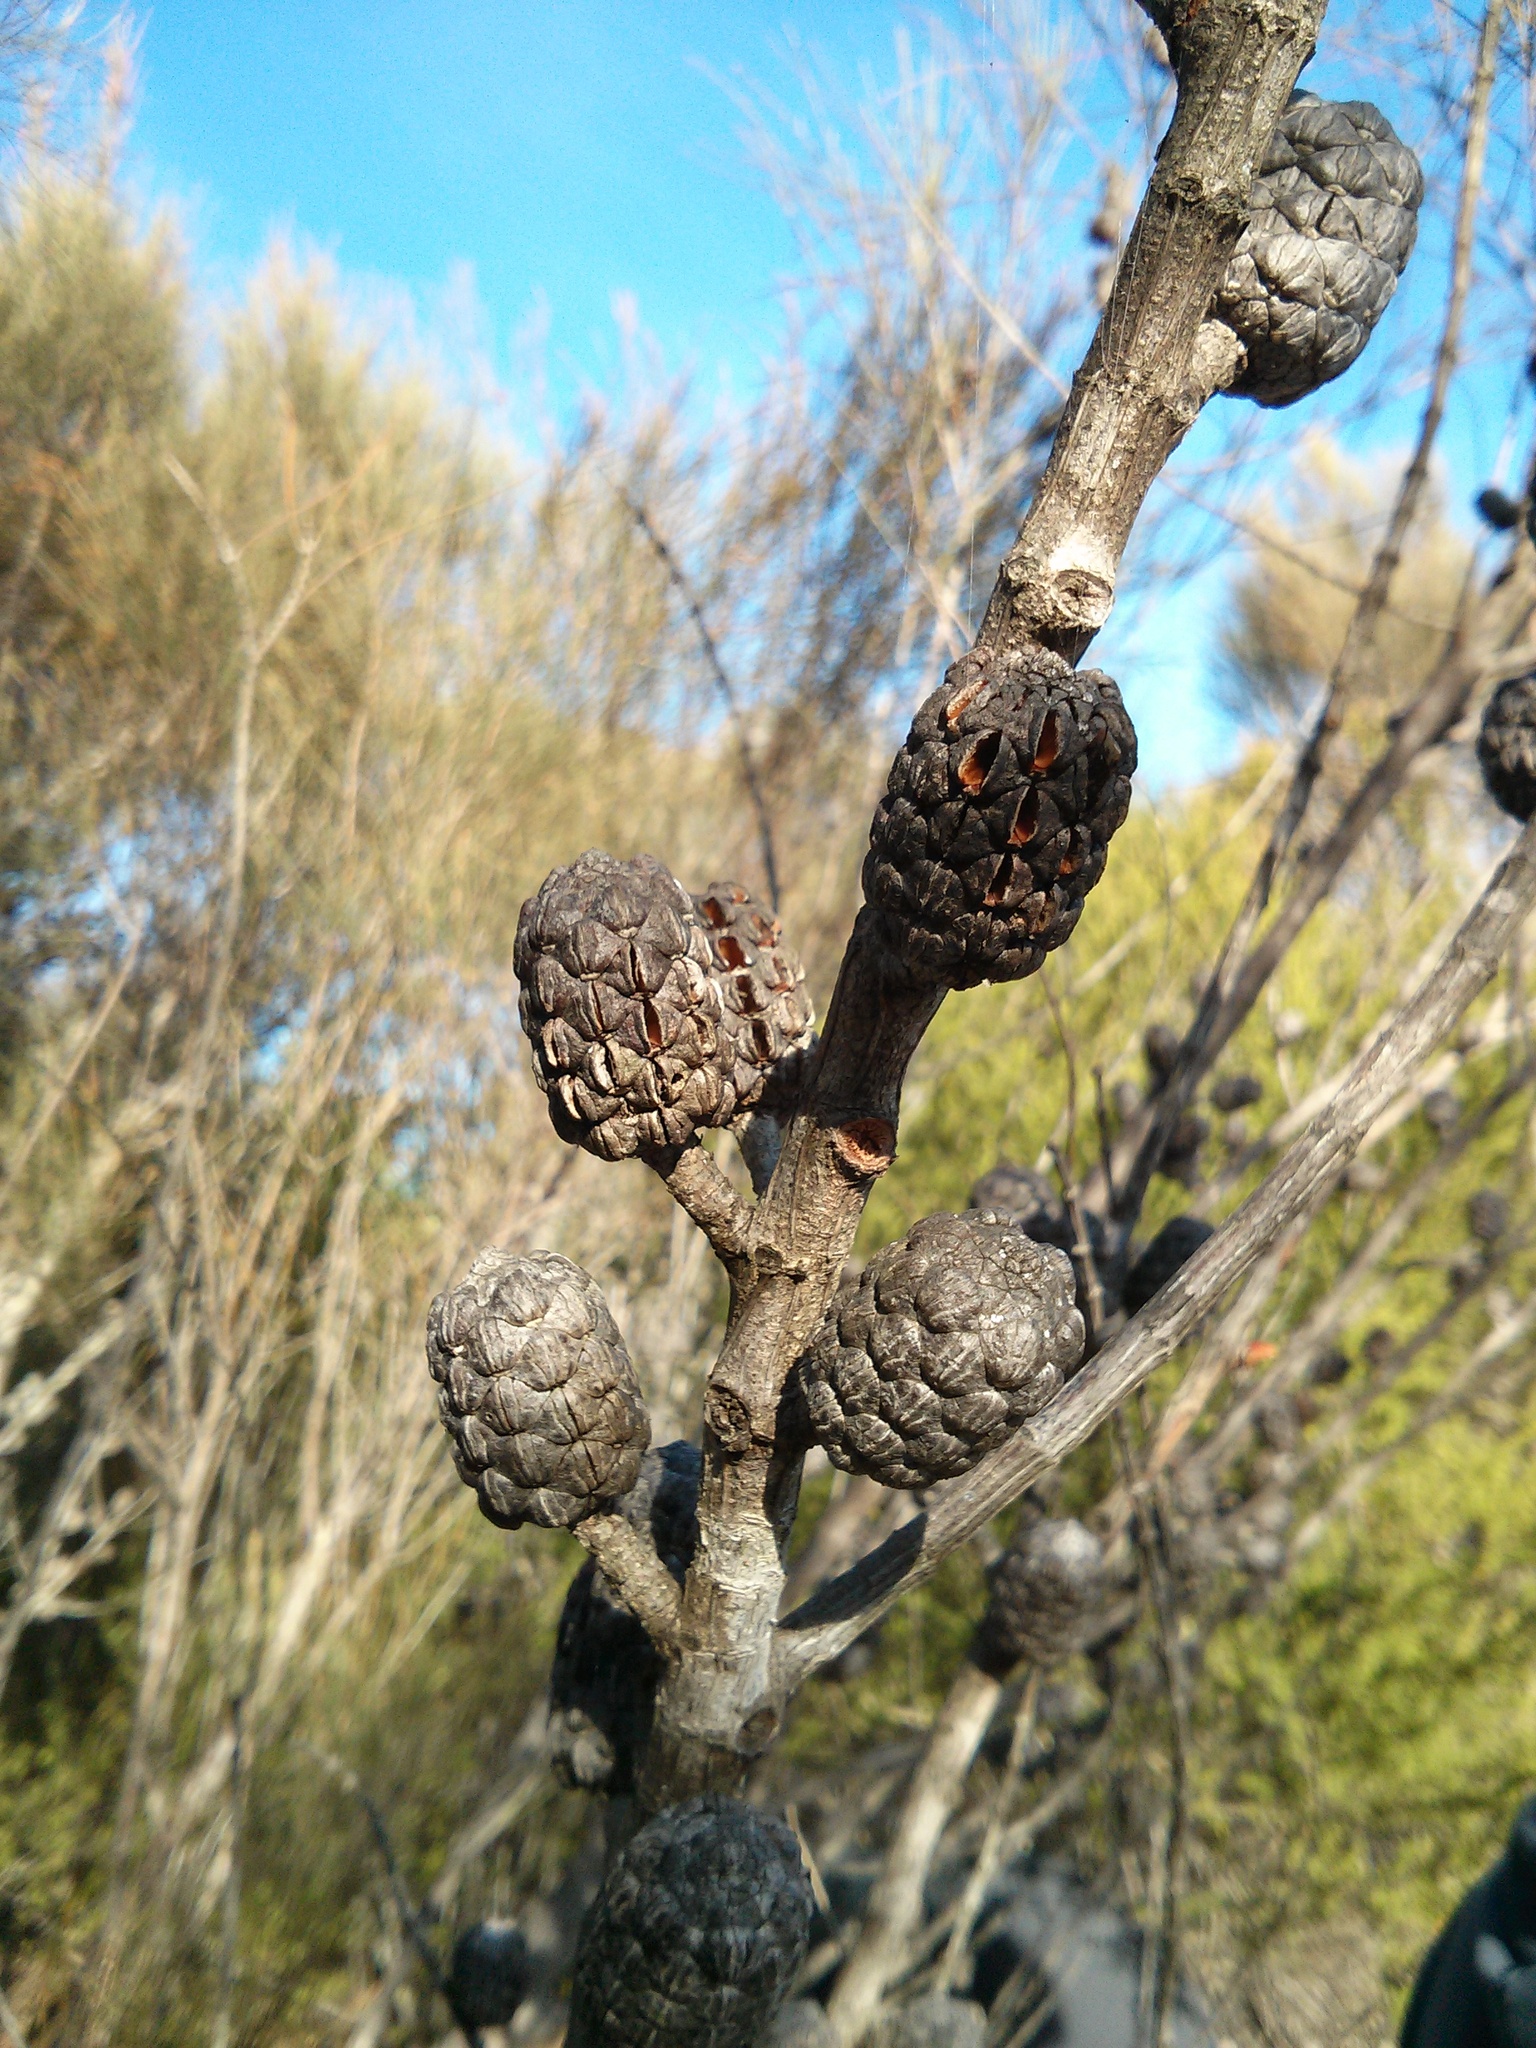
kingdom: Plantae
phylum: Tracheophyta
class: Magnoliopsida
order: Fagales
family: Casuarinaceae
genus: Allocasuarina
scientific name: Allocasuarina littoralis
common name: Black she-oak
